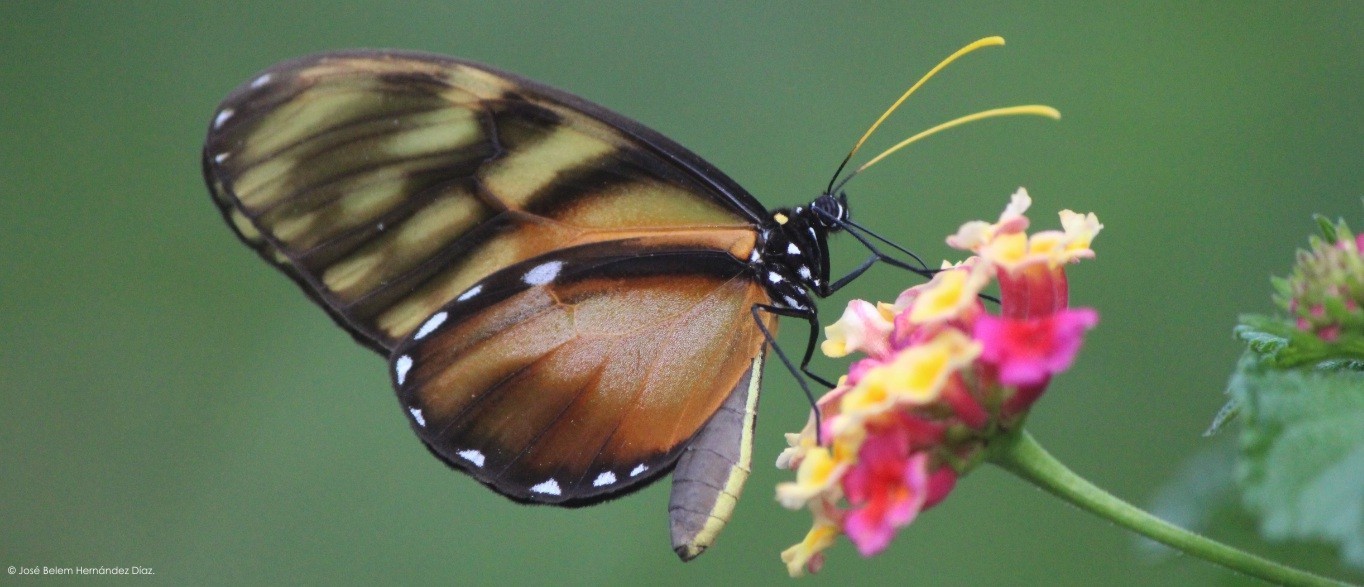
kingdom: Animalia
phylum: Arthropoda
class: Insecta
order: Lepidoptera
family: Nymphalidae
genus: Dircenna
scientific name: Dircenna
